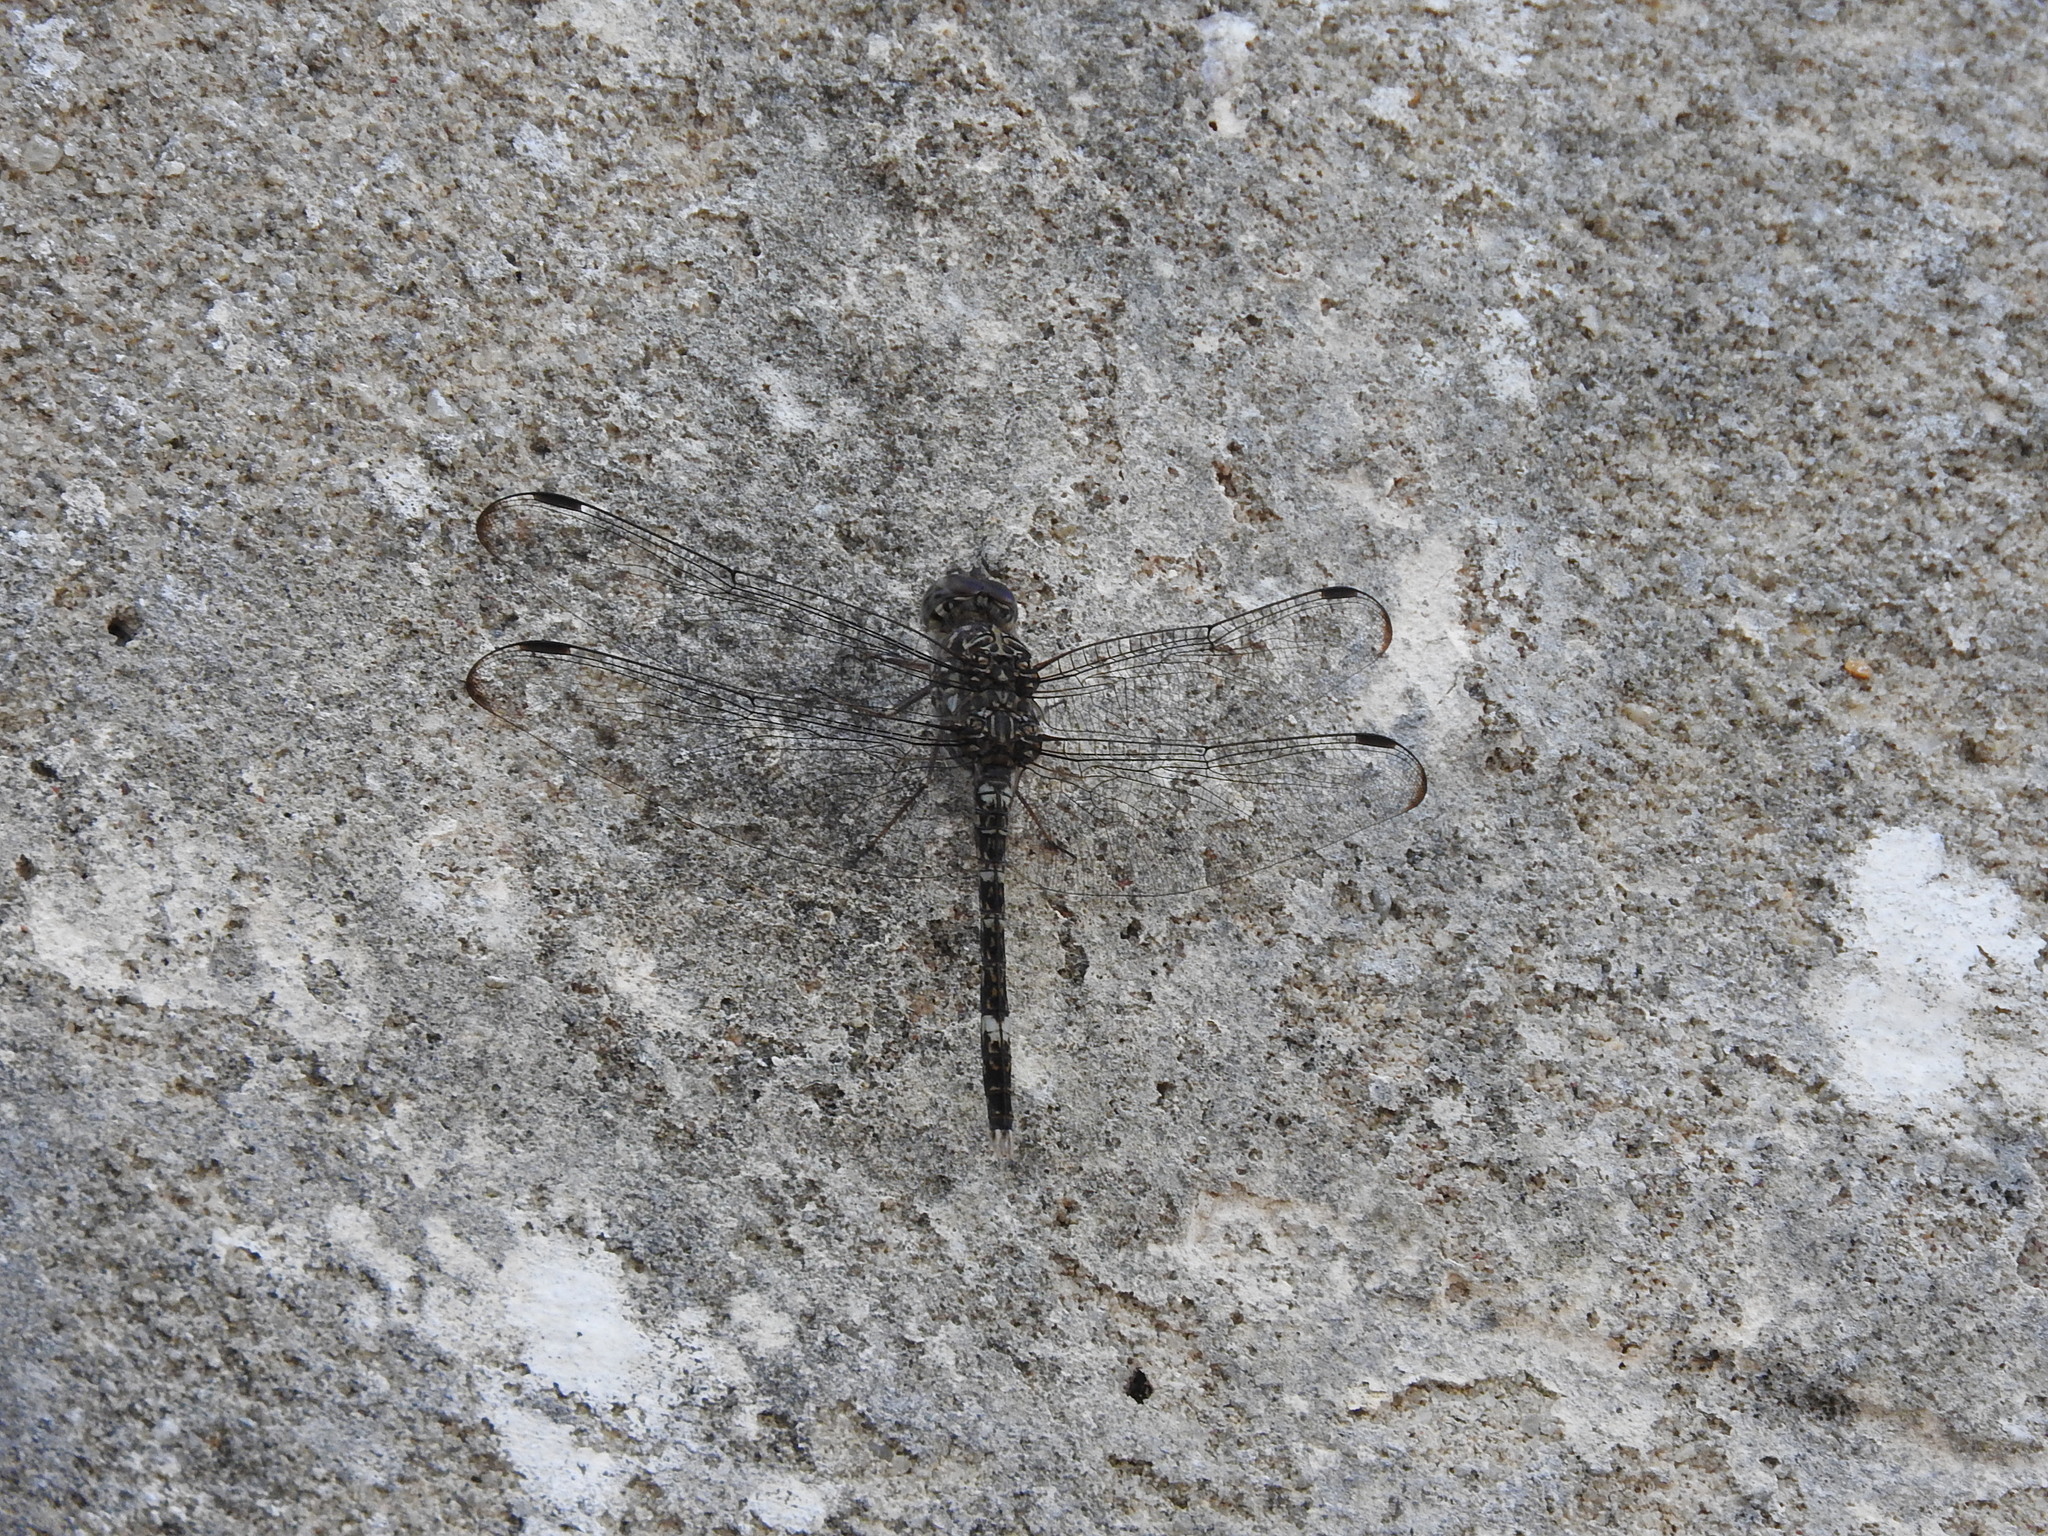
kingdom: Animalia
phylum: Arthropoda
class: Insecta
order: Odonata
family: Libellulidae
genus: Bradinopyga
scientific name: Bradinopyga cornuta
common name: Flecked wall-skimmer
